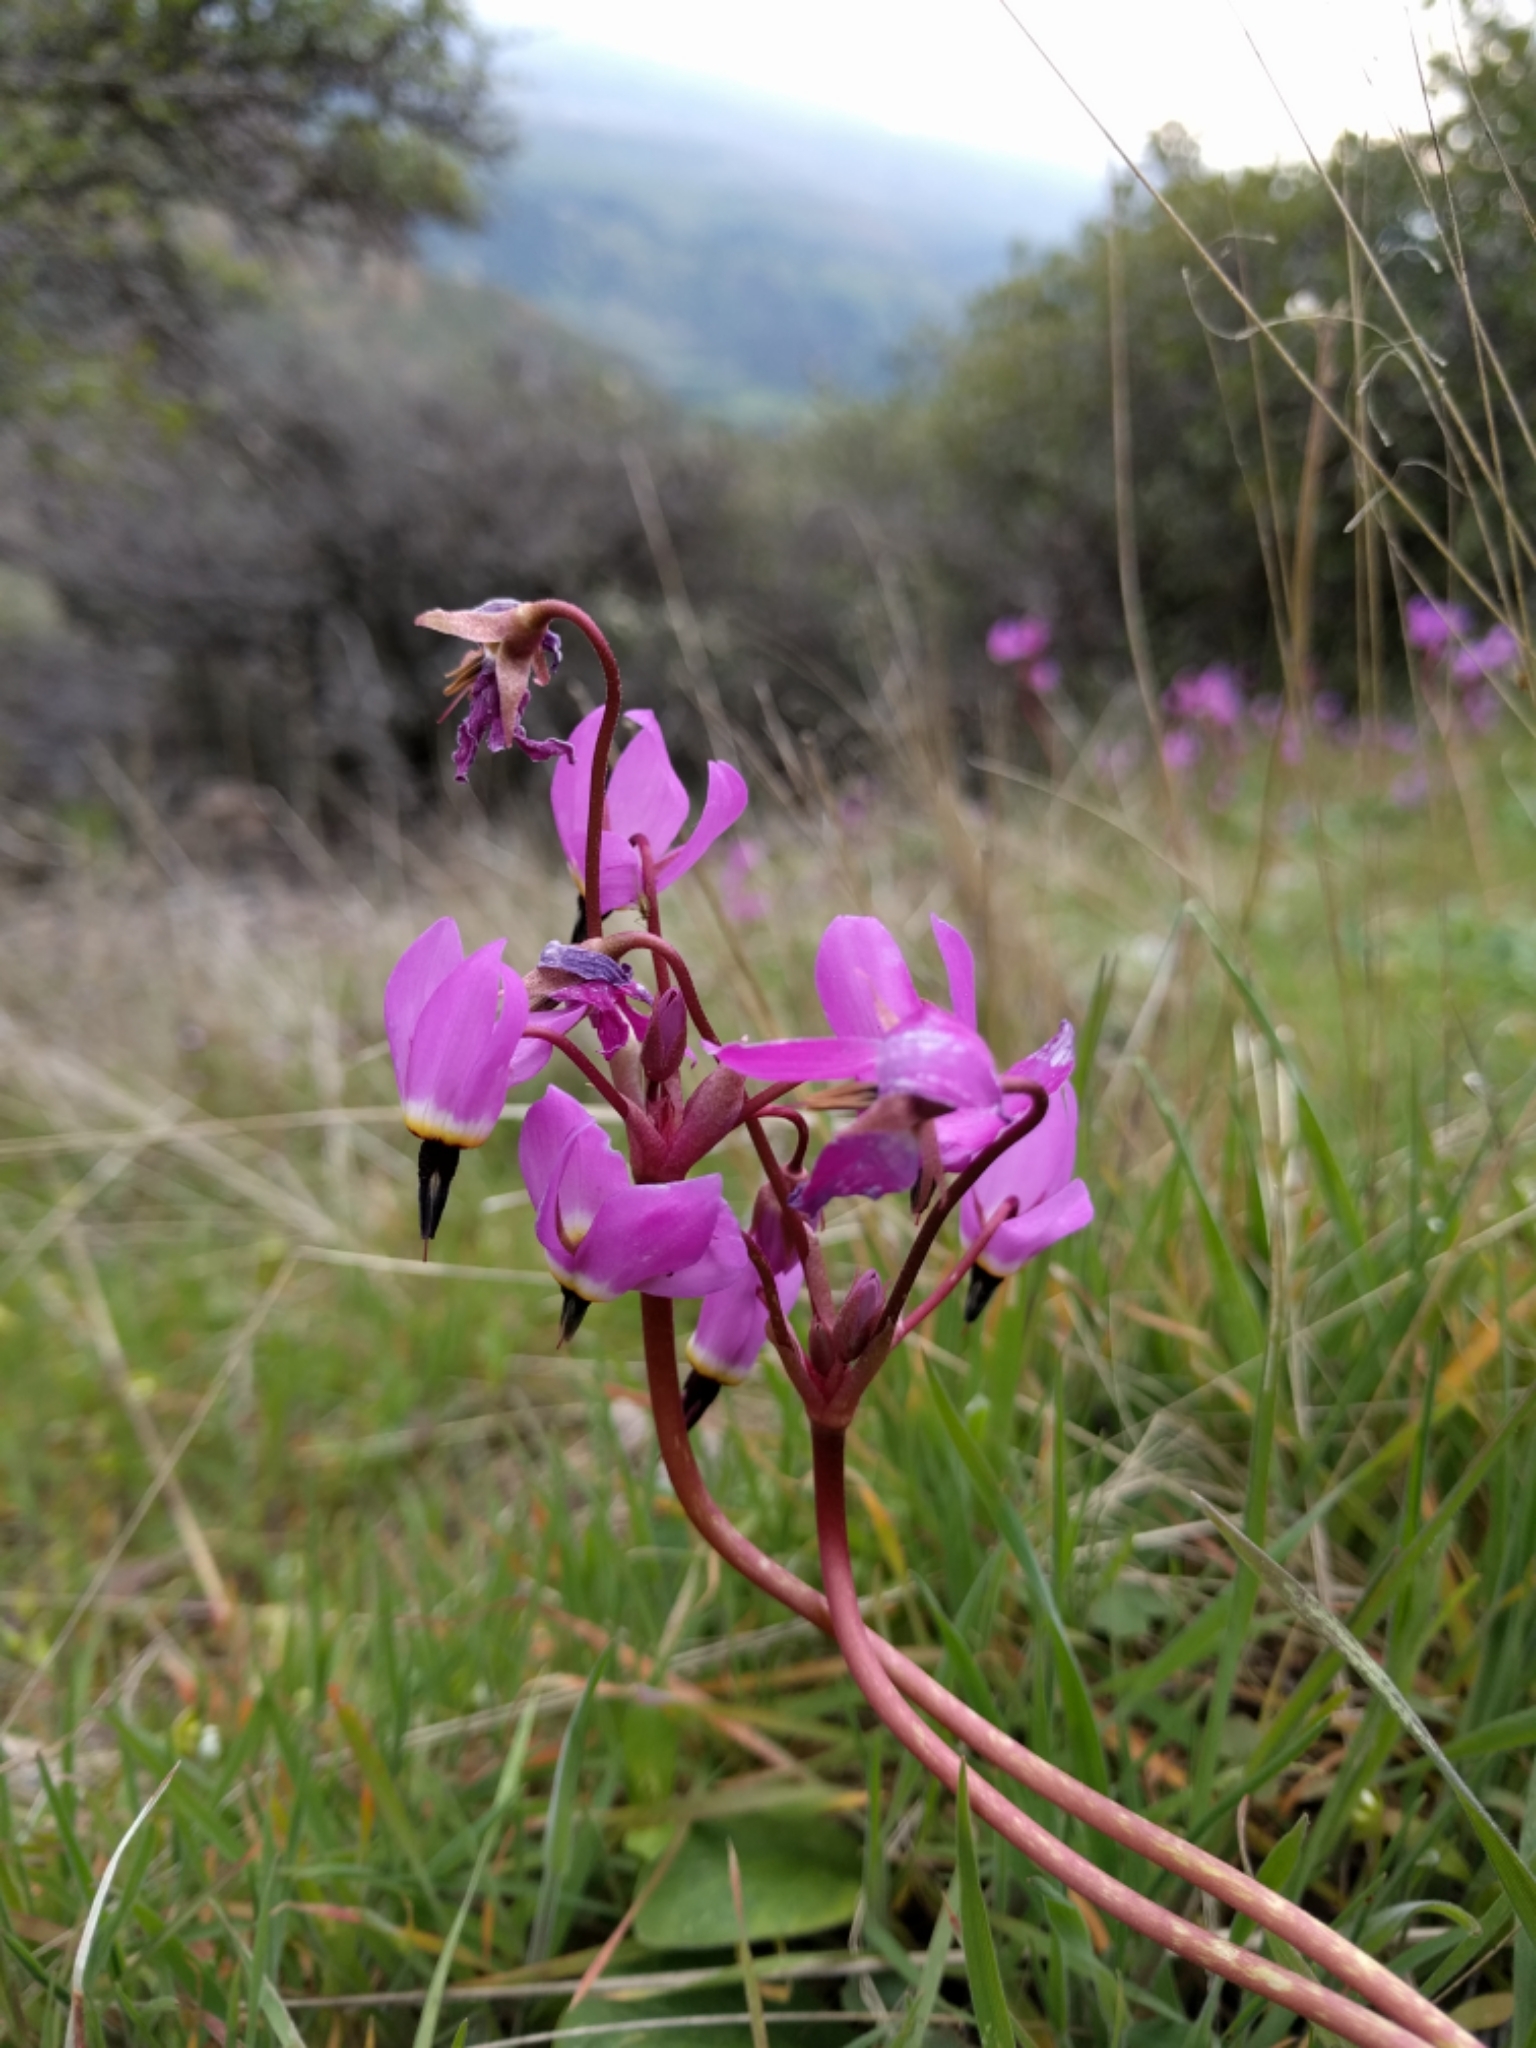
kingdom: Plantae
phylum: Tracheophyta
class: Magnoliopsida
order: Ericales
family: Primulaceae
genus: Dodecatheon
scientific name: Dodecatheon hendersonii
